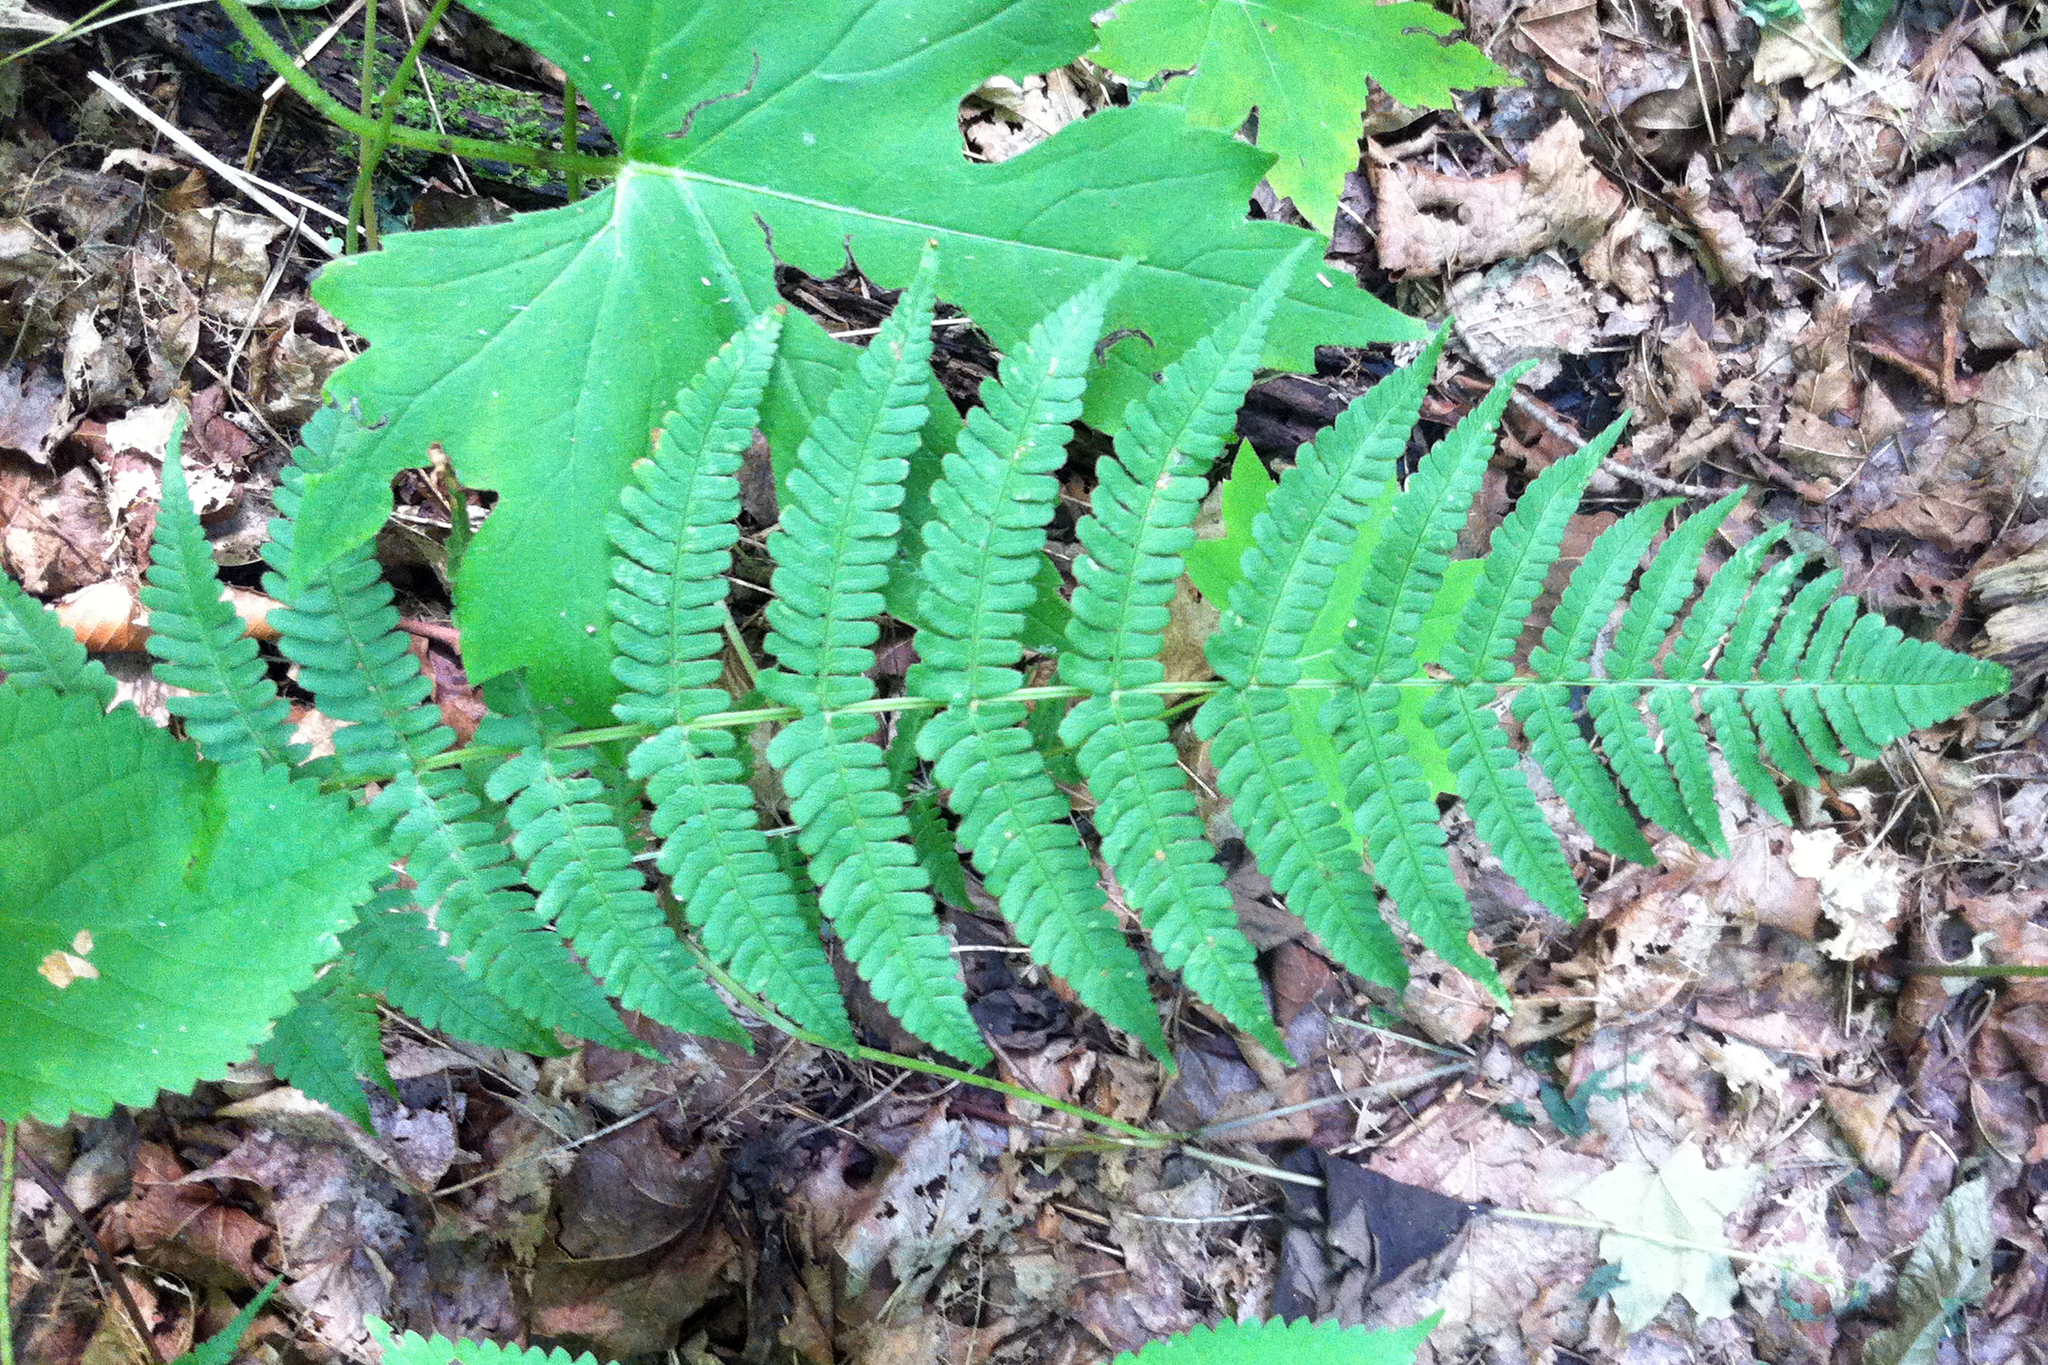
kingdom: Plantae
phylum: Tracheophyta
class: Polypodiopsida
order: Polypodiales
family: Dryopteridaceae
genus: Dryopteris
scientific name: Dryopteris marginalis
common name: Marginal wood fern
